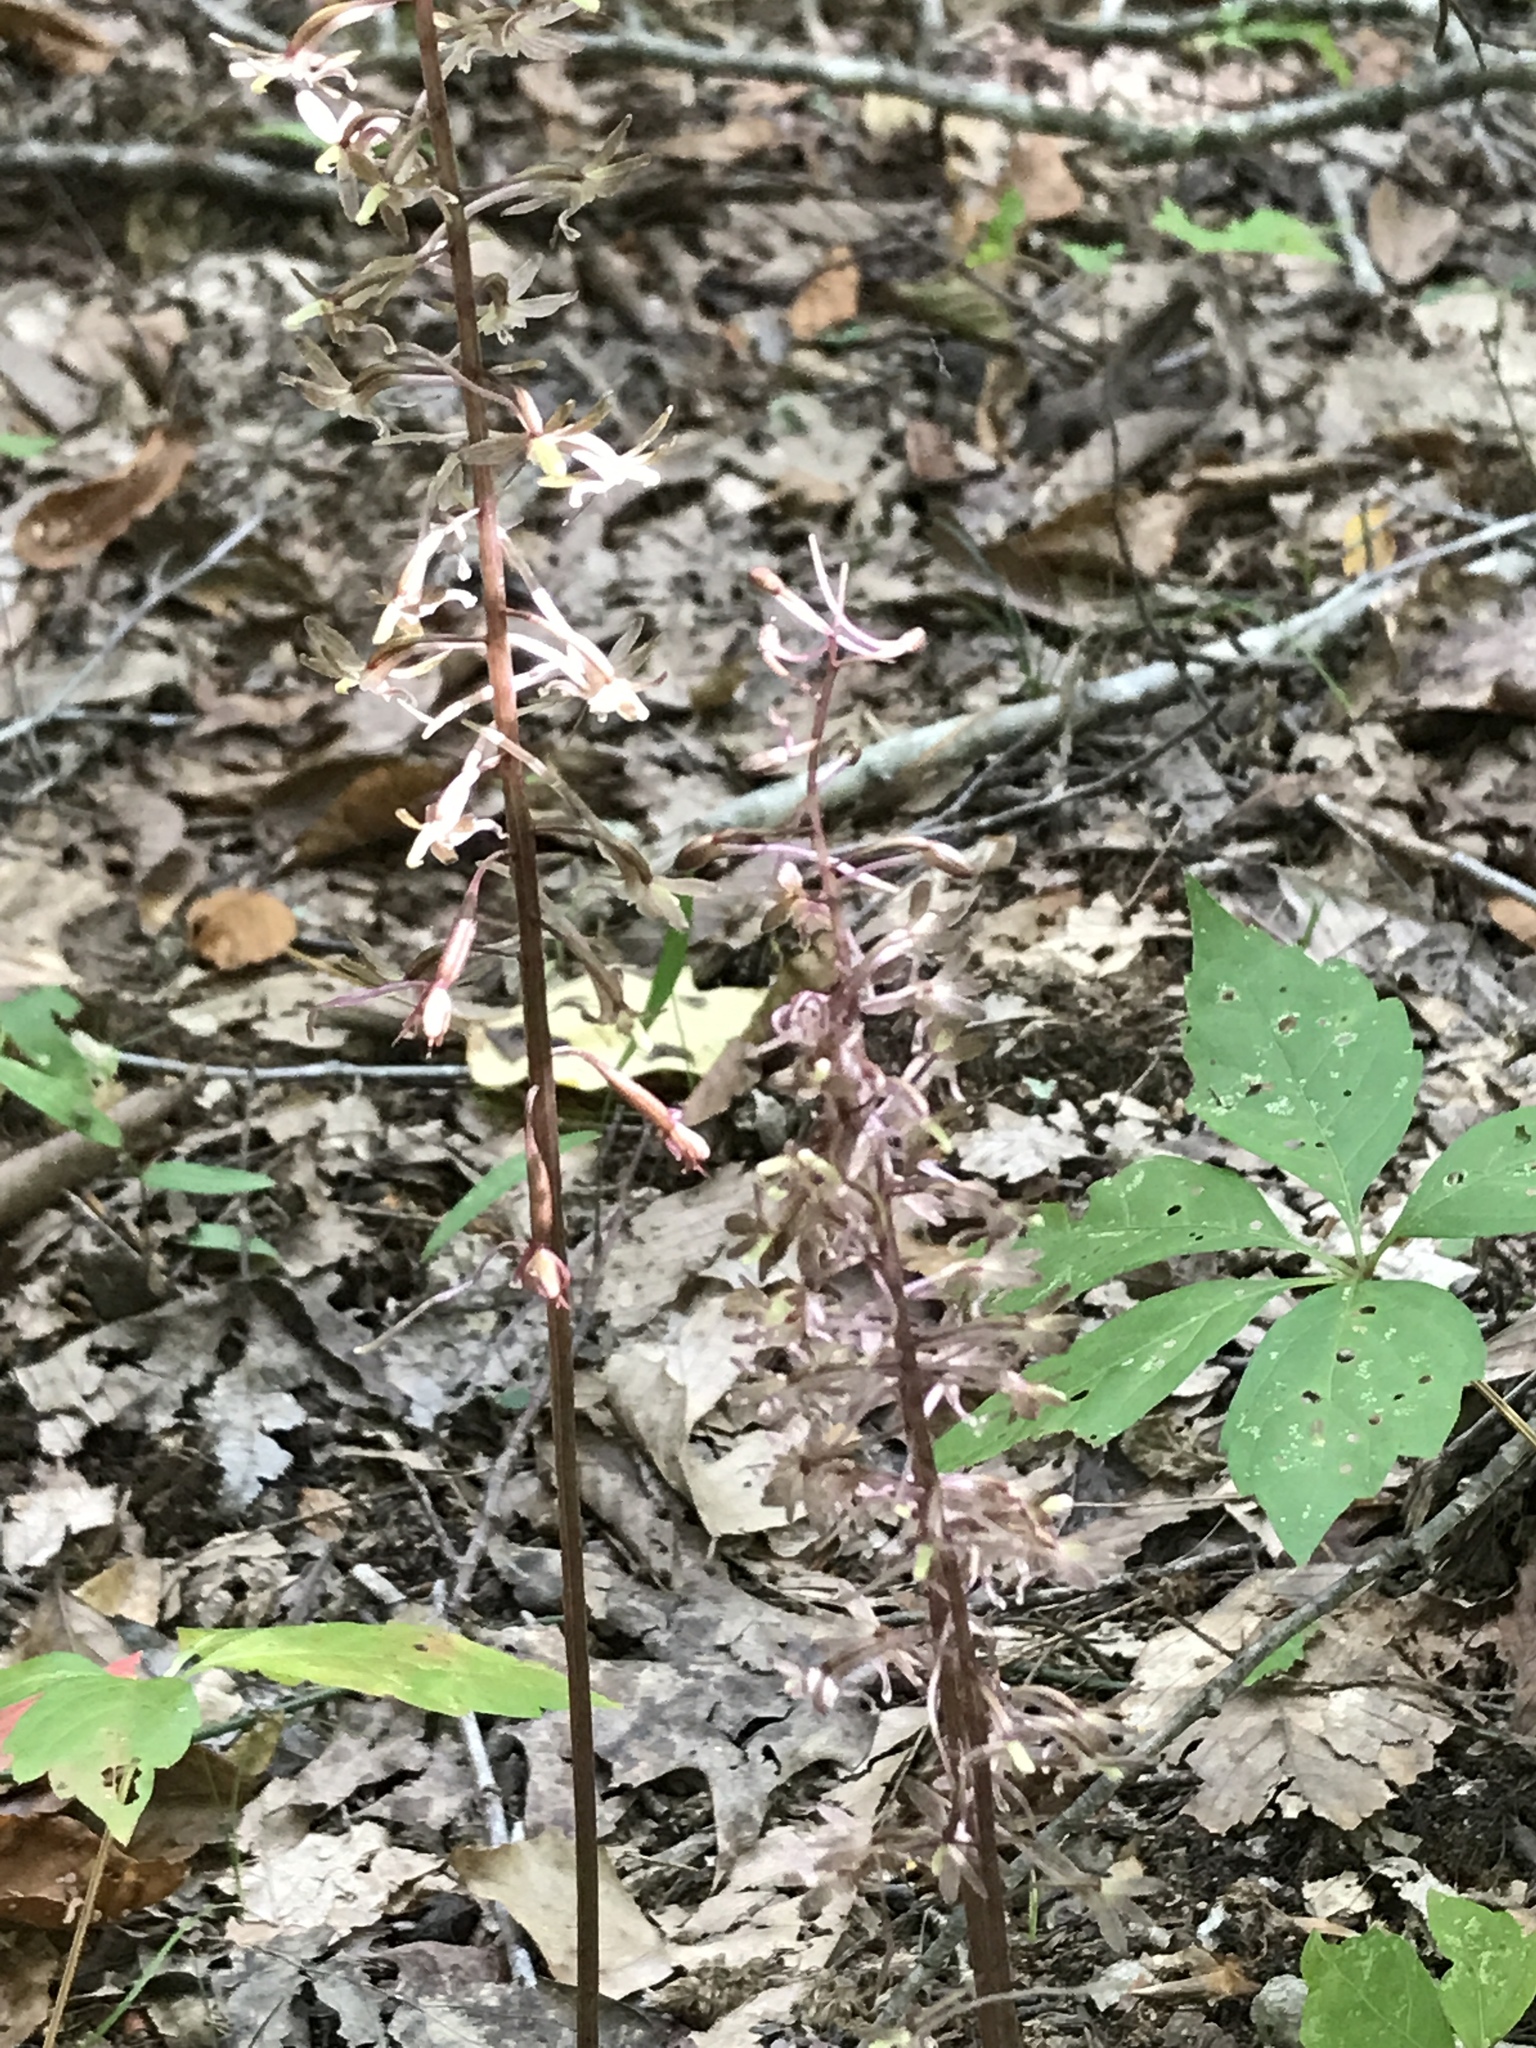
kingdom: Plantae
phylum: Tracheophyta
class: Liliopsida
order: Asparagales
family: Orchidaceae
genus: Tipularia
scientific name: Tipularia discolor
